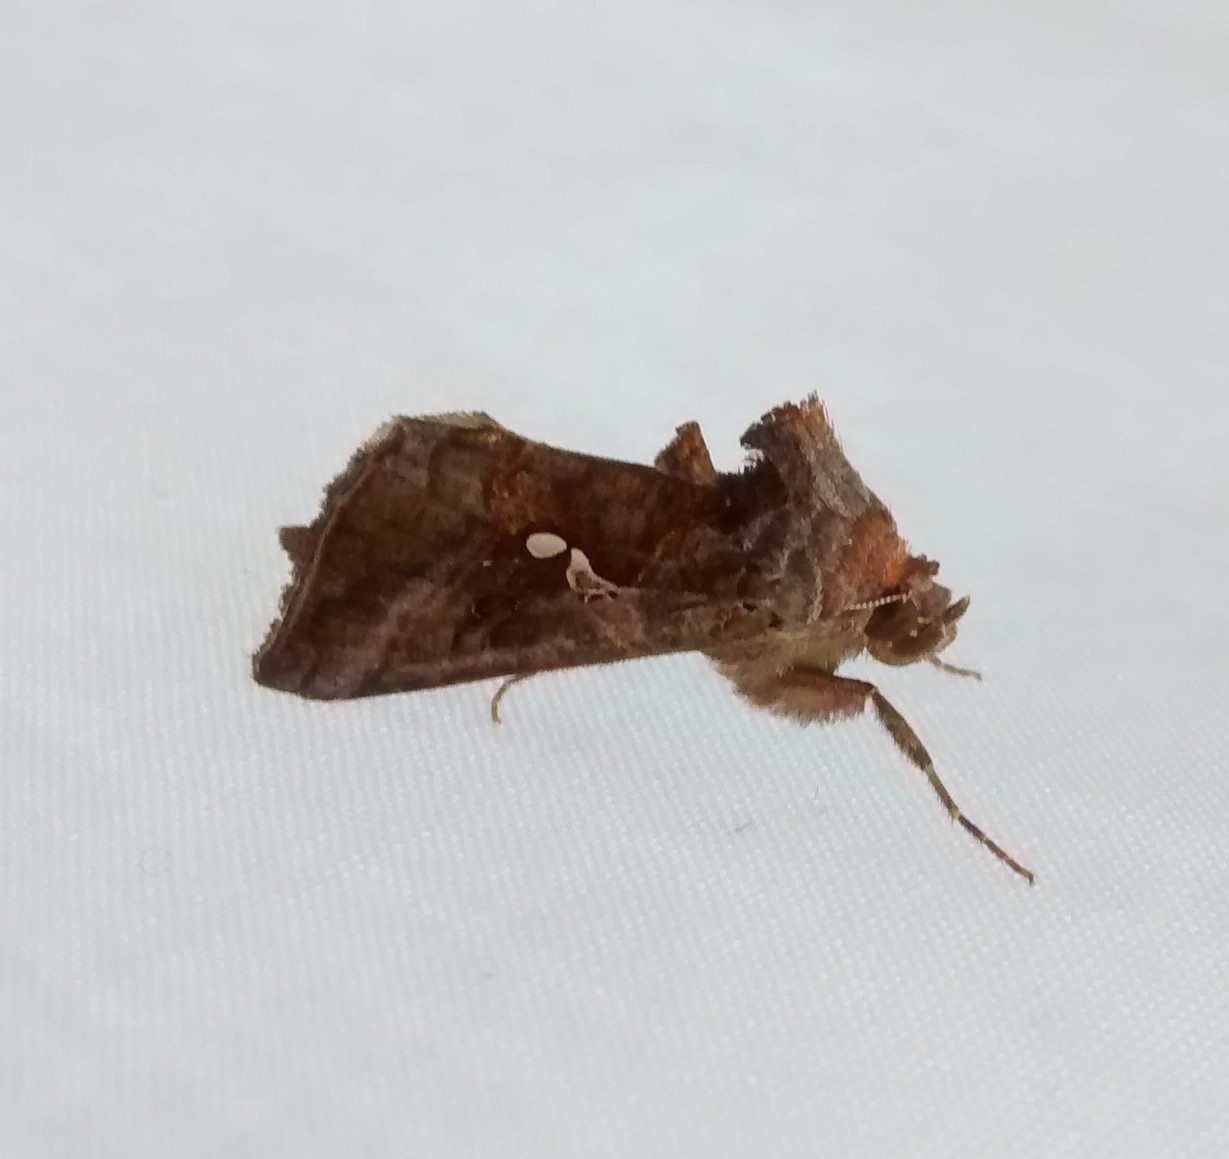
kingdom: Animalia
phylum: Arthropoda
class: Insecta
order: Lepidoptera
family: Noctuidae
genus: Autographa
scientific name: Autographa precationis
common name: Common looper moth
